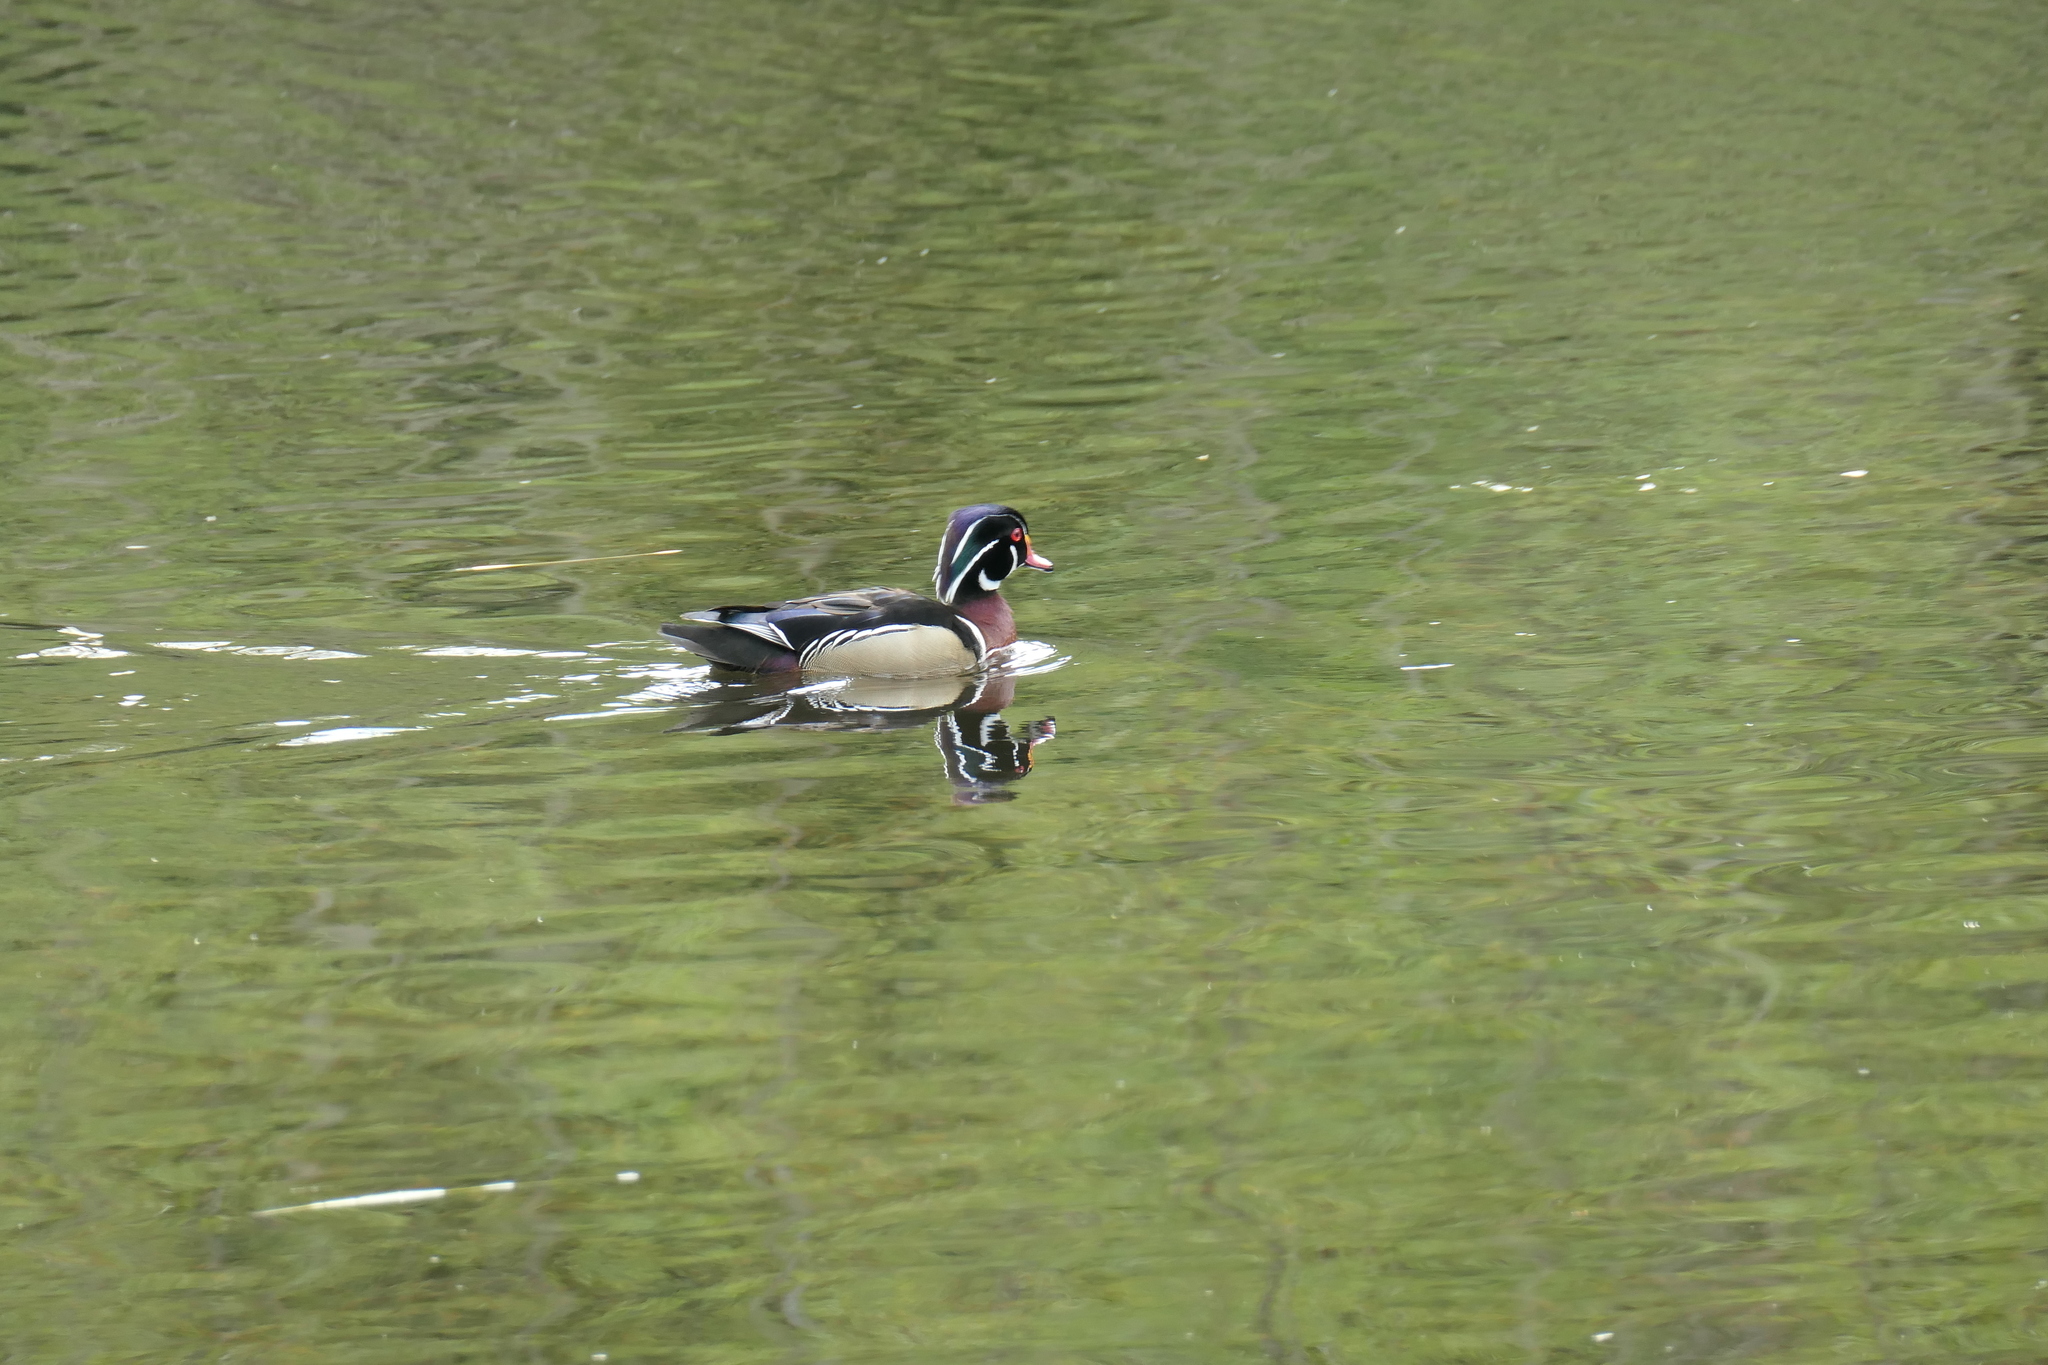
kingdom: Animalia
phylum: Chordata
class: Aves
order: Anseriformes
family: Anatidae
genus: Aix
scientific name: Aix sponsa
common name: Wood duck
